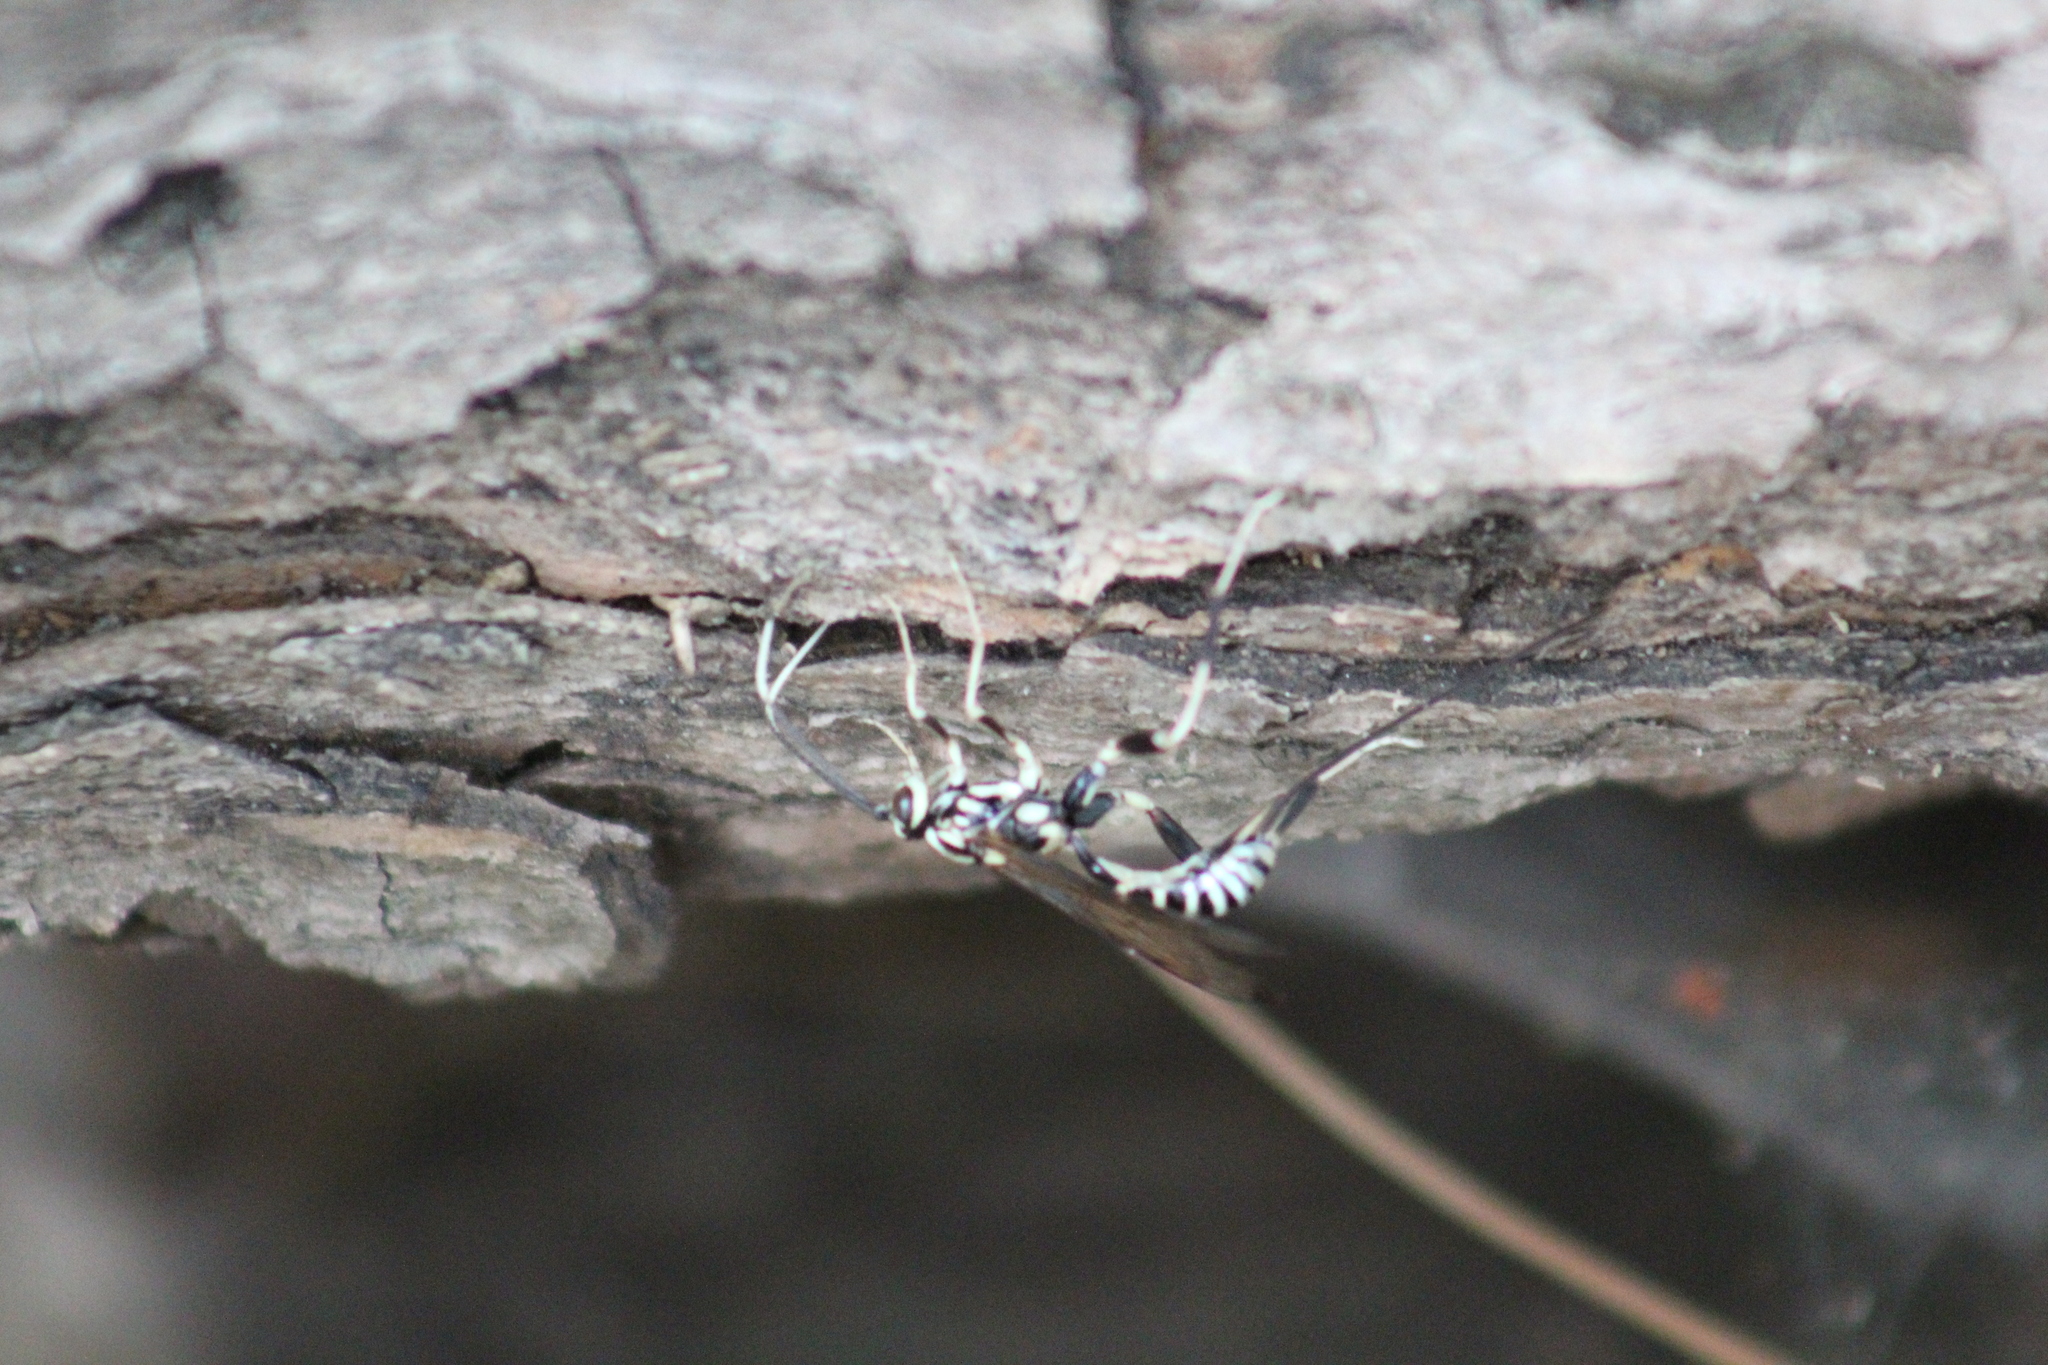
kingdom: Animalia
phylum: Arthropoda
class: Insecta
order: Hymenoptera
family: Ichneumonidae
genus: Arotes
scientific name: Arotes amoenus
